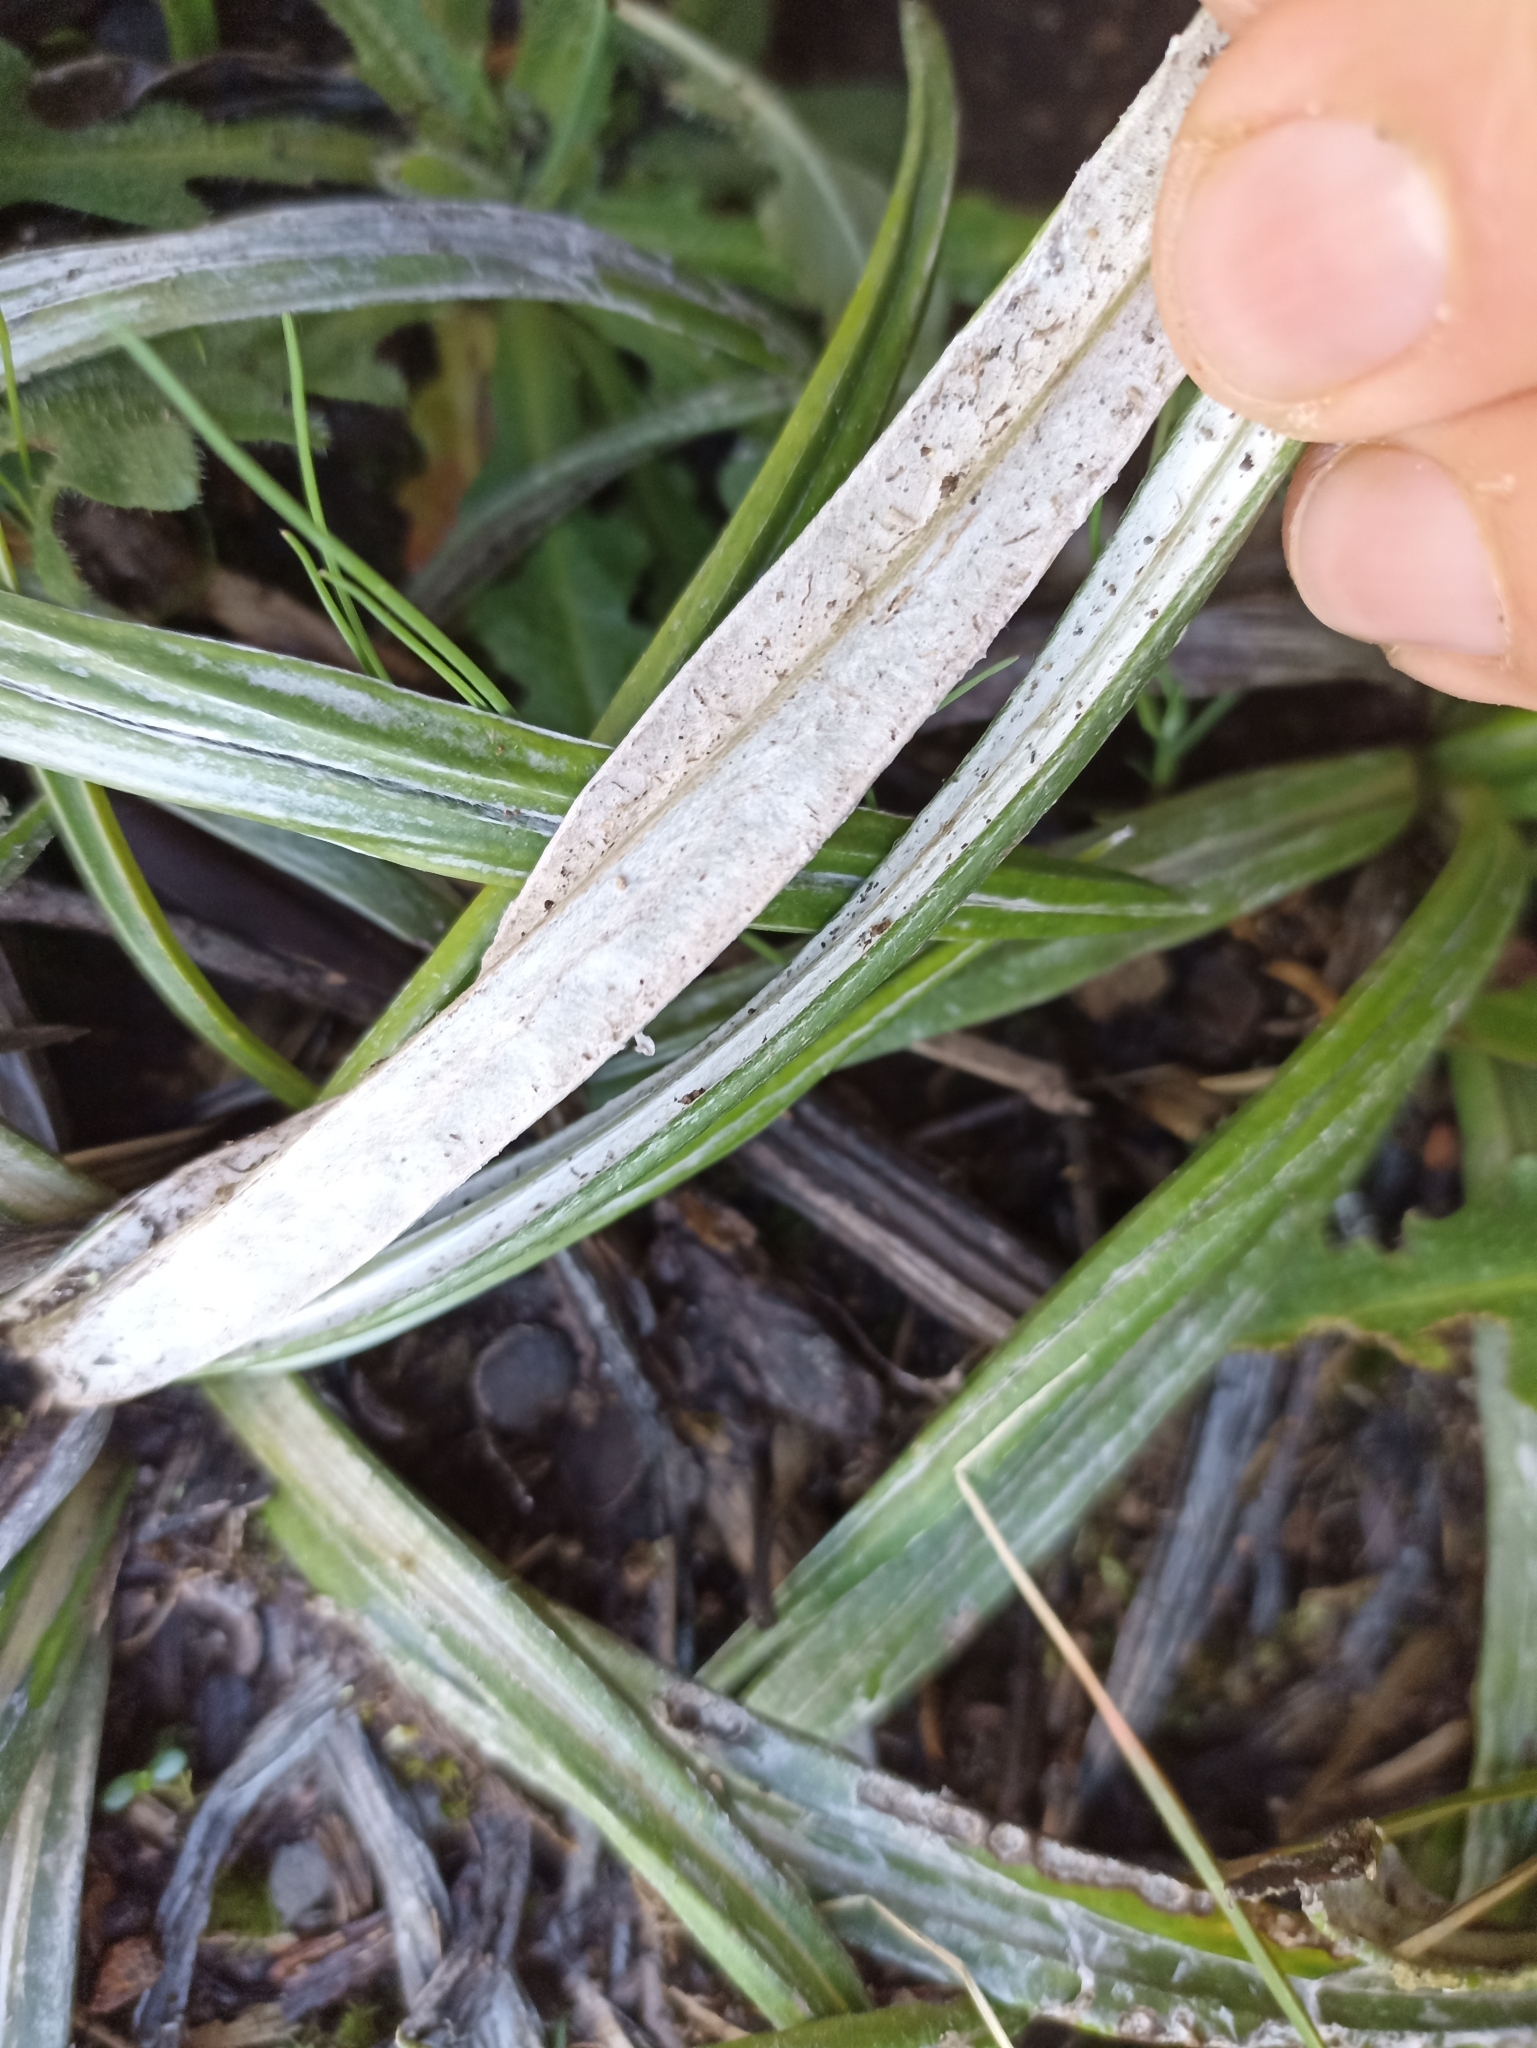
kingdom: Plantae
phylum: Tracheophyta
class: Magnoliopsida
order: Asterales
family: Asteraceae
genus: Celmisia
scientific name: Celmisia graminifolia
